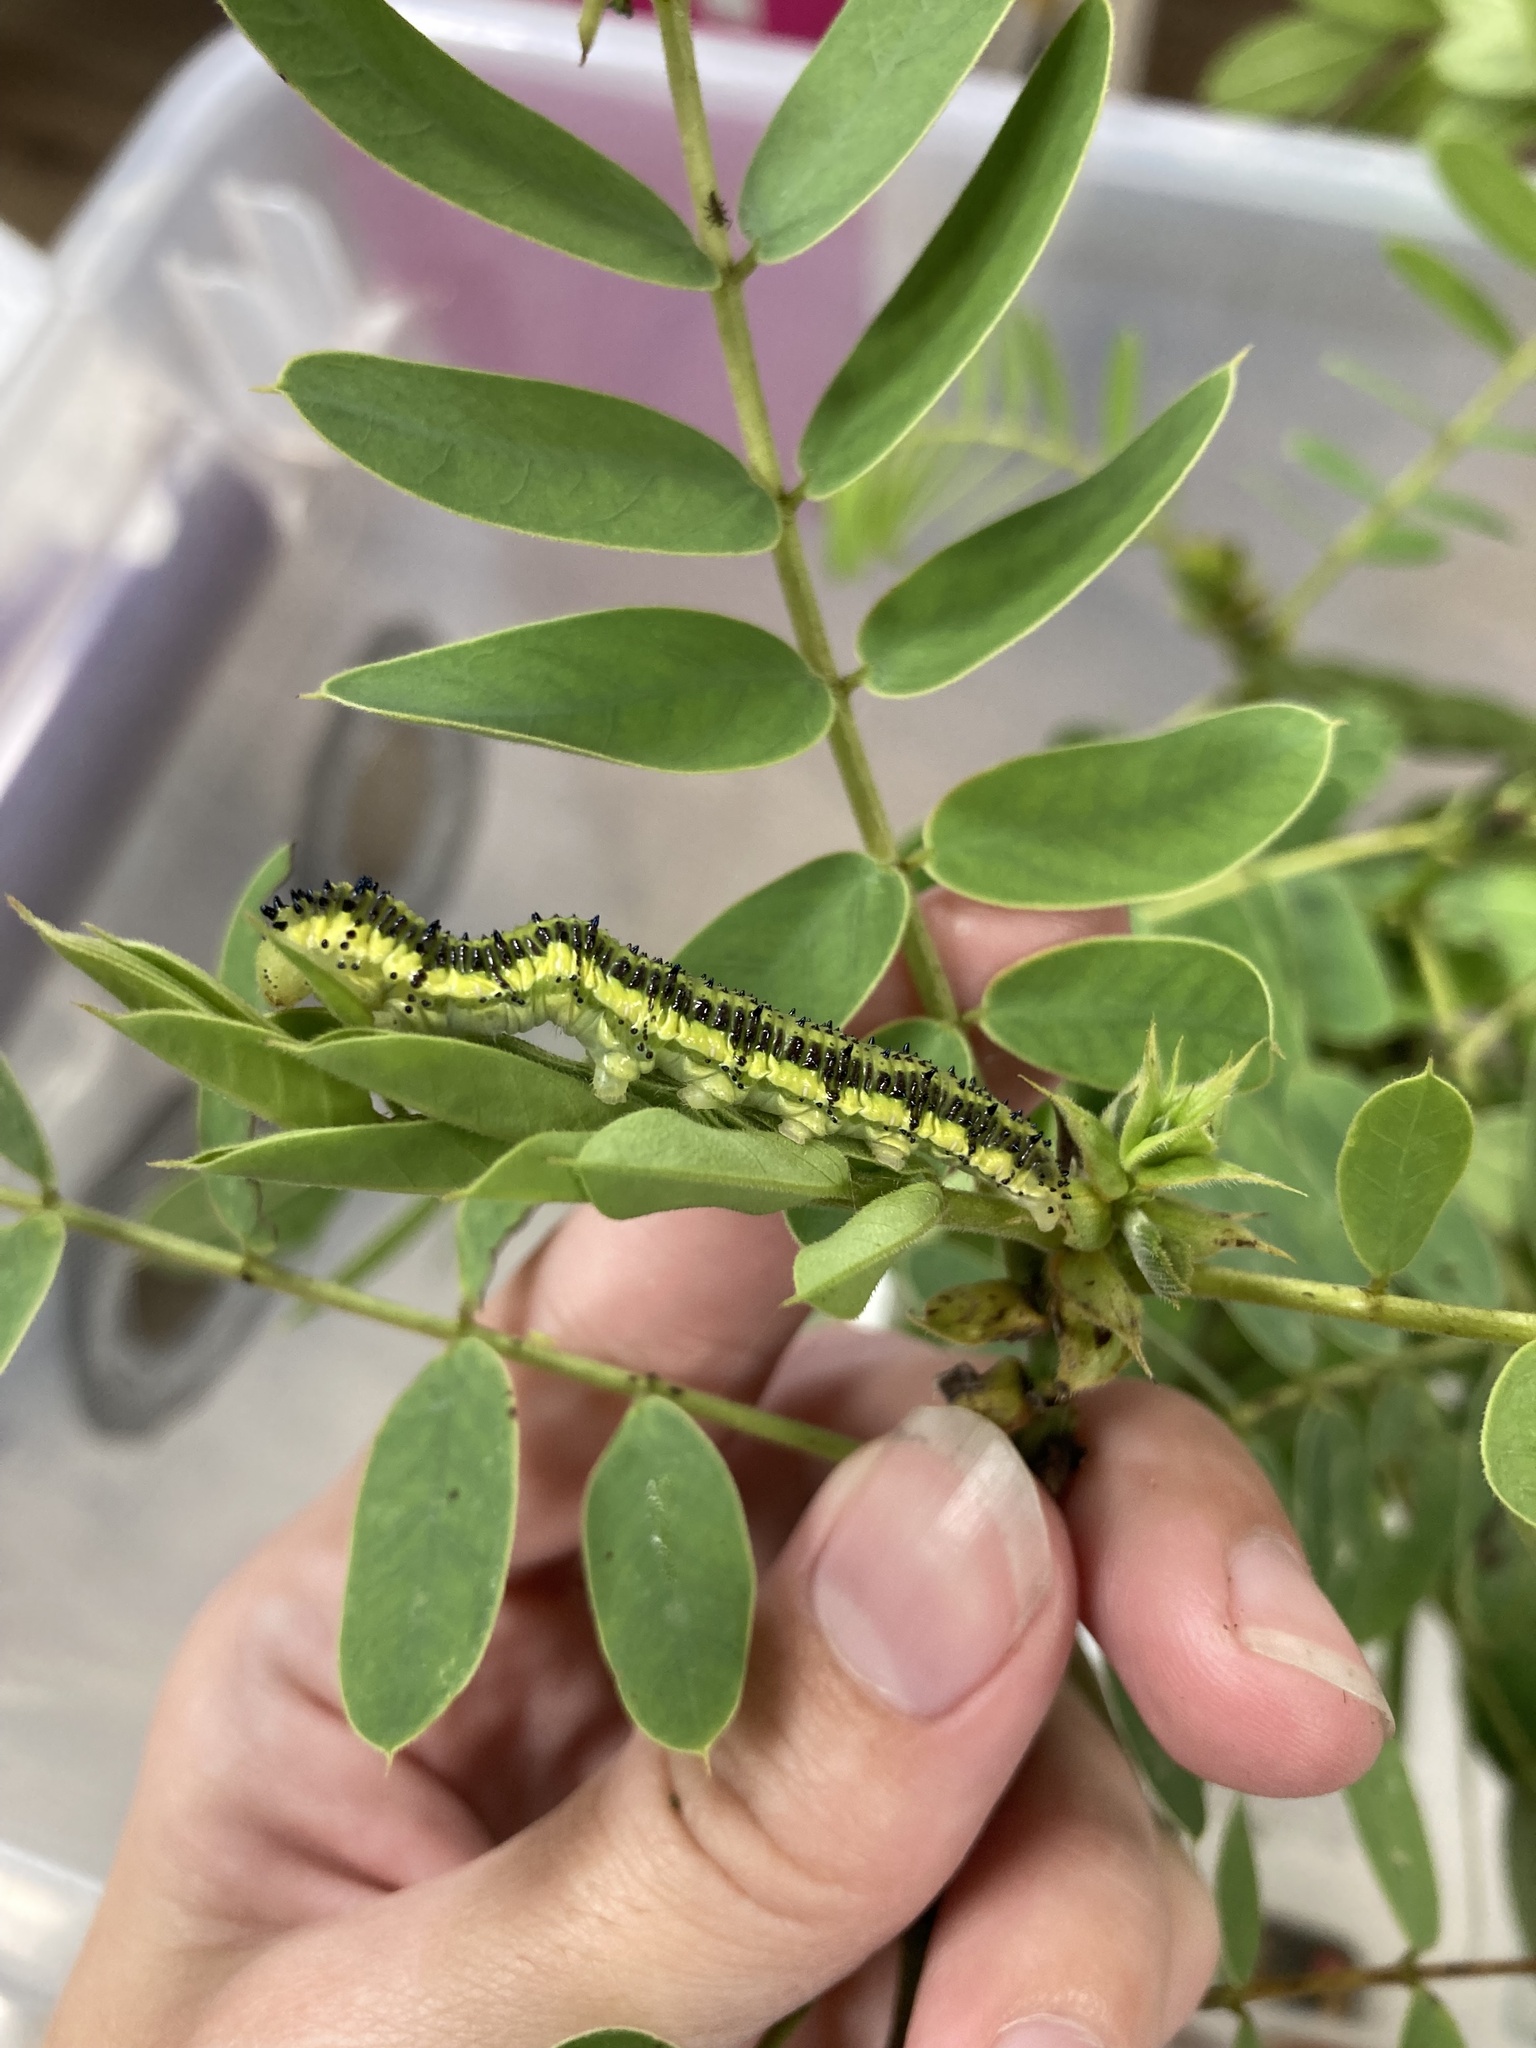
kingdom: Animalia
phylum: Arthropoda
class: Insecta
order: Lepidoptera
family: Pieridae
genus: Phoebis
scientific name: Phoebis philea
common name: Orange-barred giant sulphur
